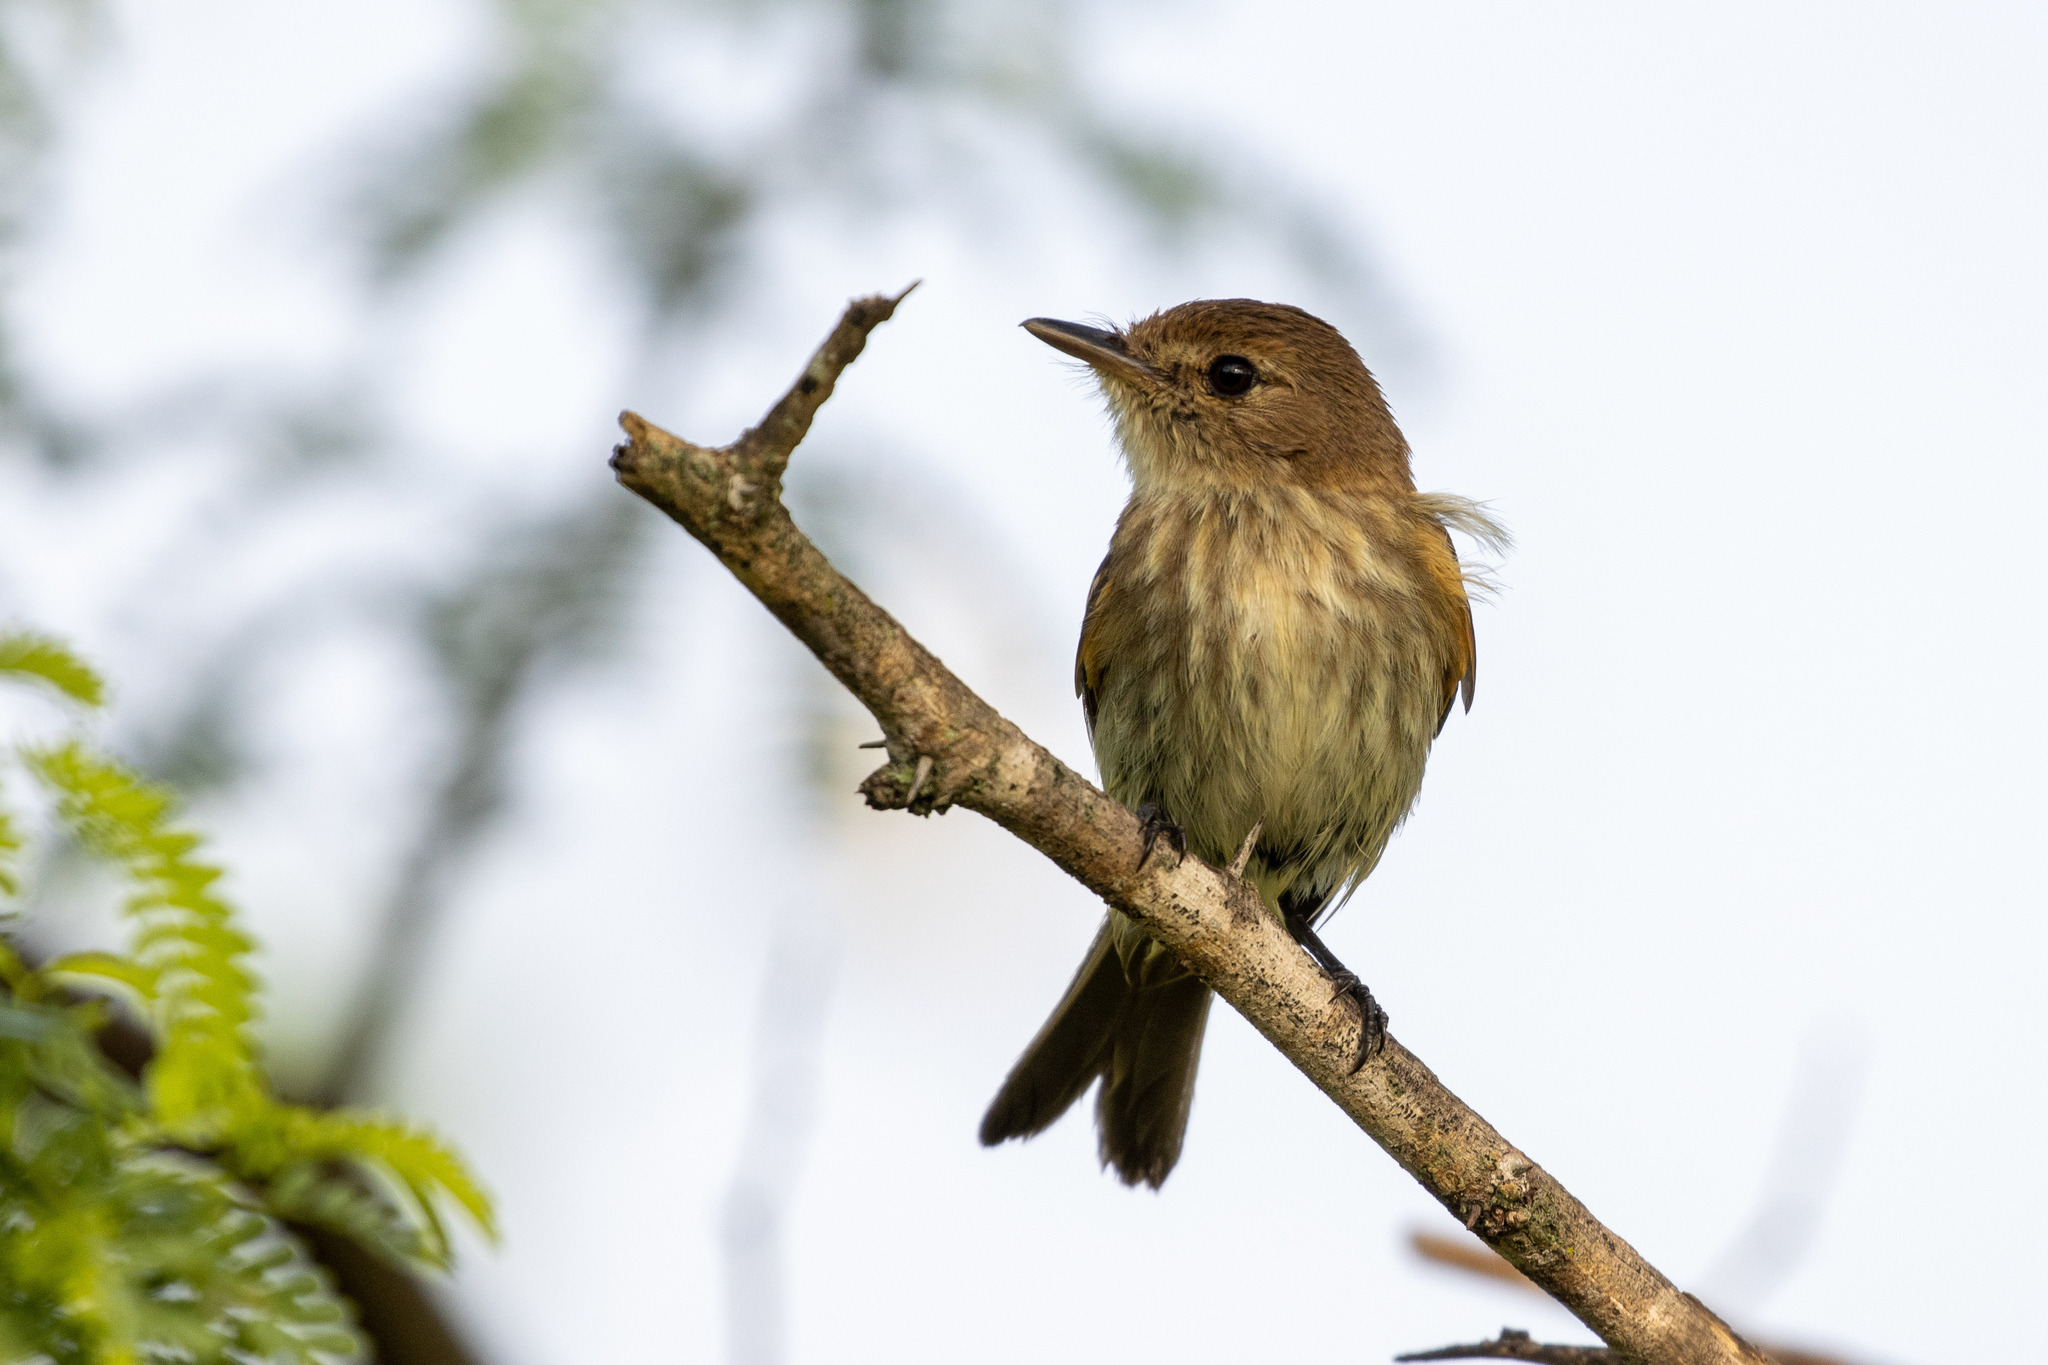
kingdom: Animalia
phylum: Chordata
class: Aves
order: Passeriformes
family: Tyrannidae
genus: Myiophobus
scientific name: Myiophobus fasciatus
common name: Bran-colored flycatcher
